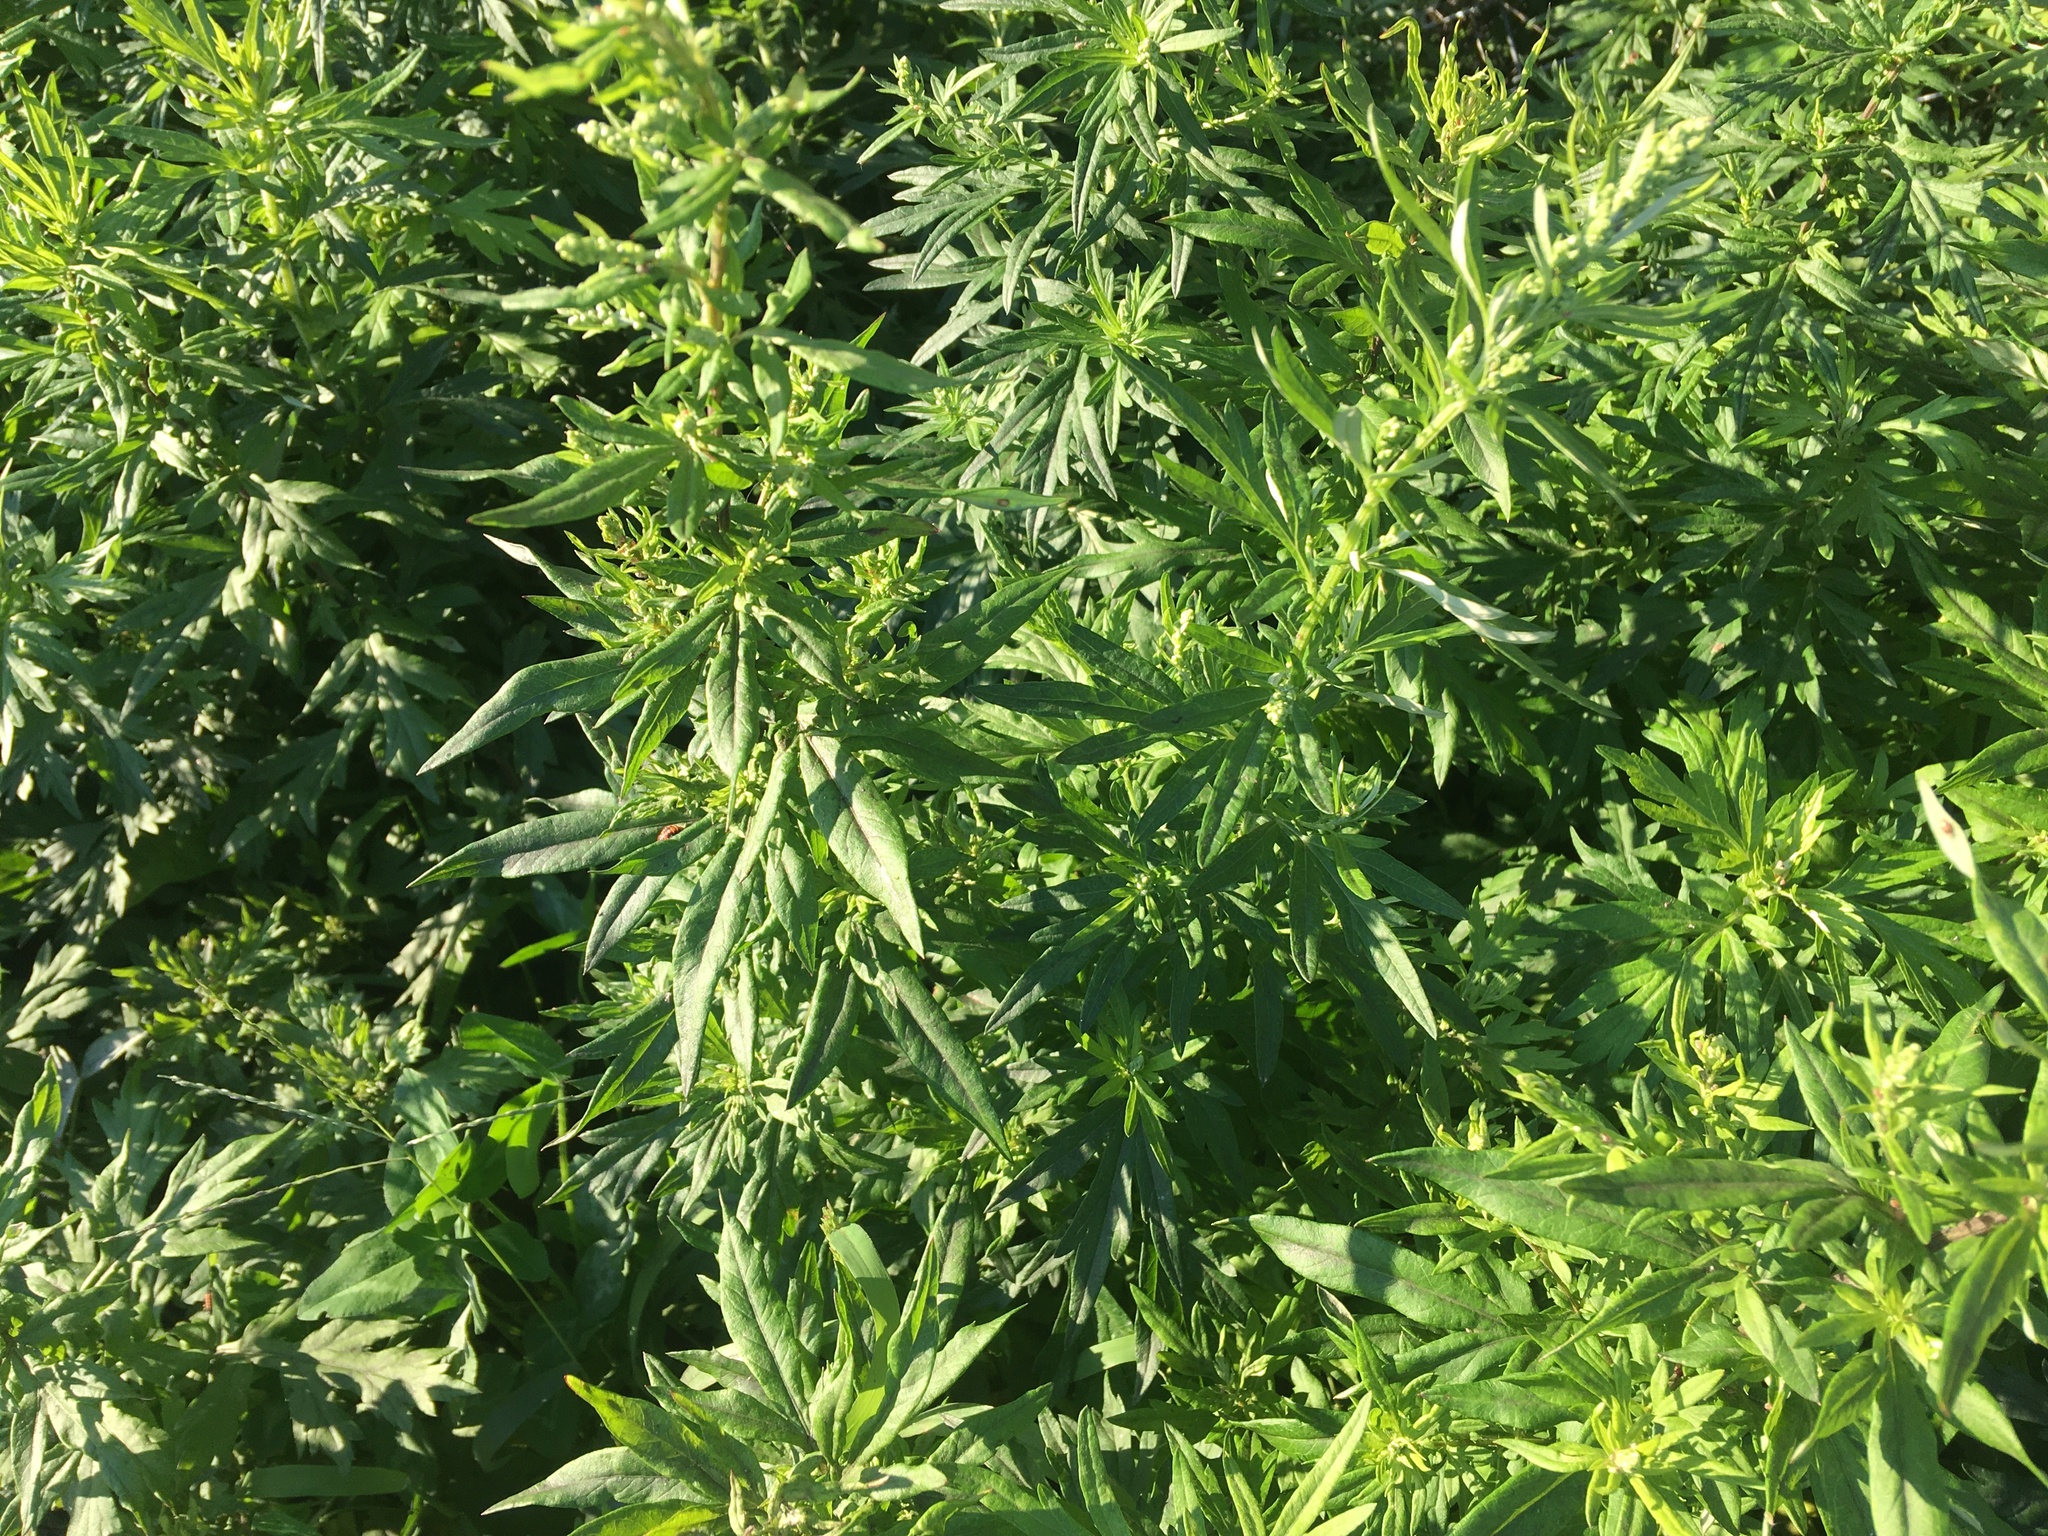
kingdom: Plantae
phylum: Tracheophyta
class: Magnoliopsida
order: Asterales
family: Asteraceae
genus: Artemisia
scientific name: Artemisia vulgaris
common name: Mugwort
